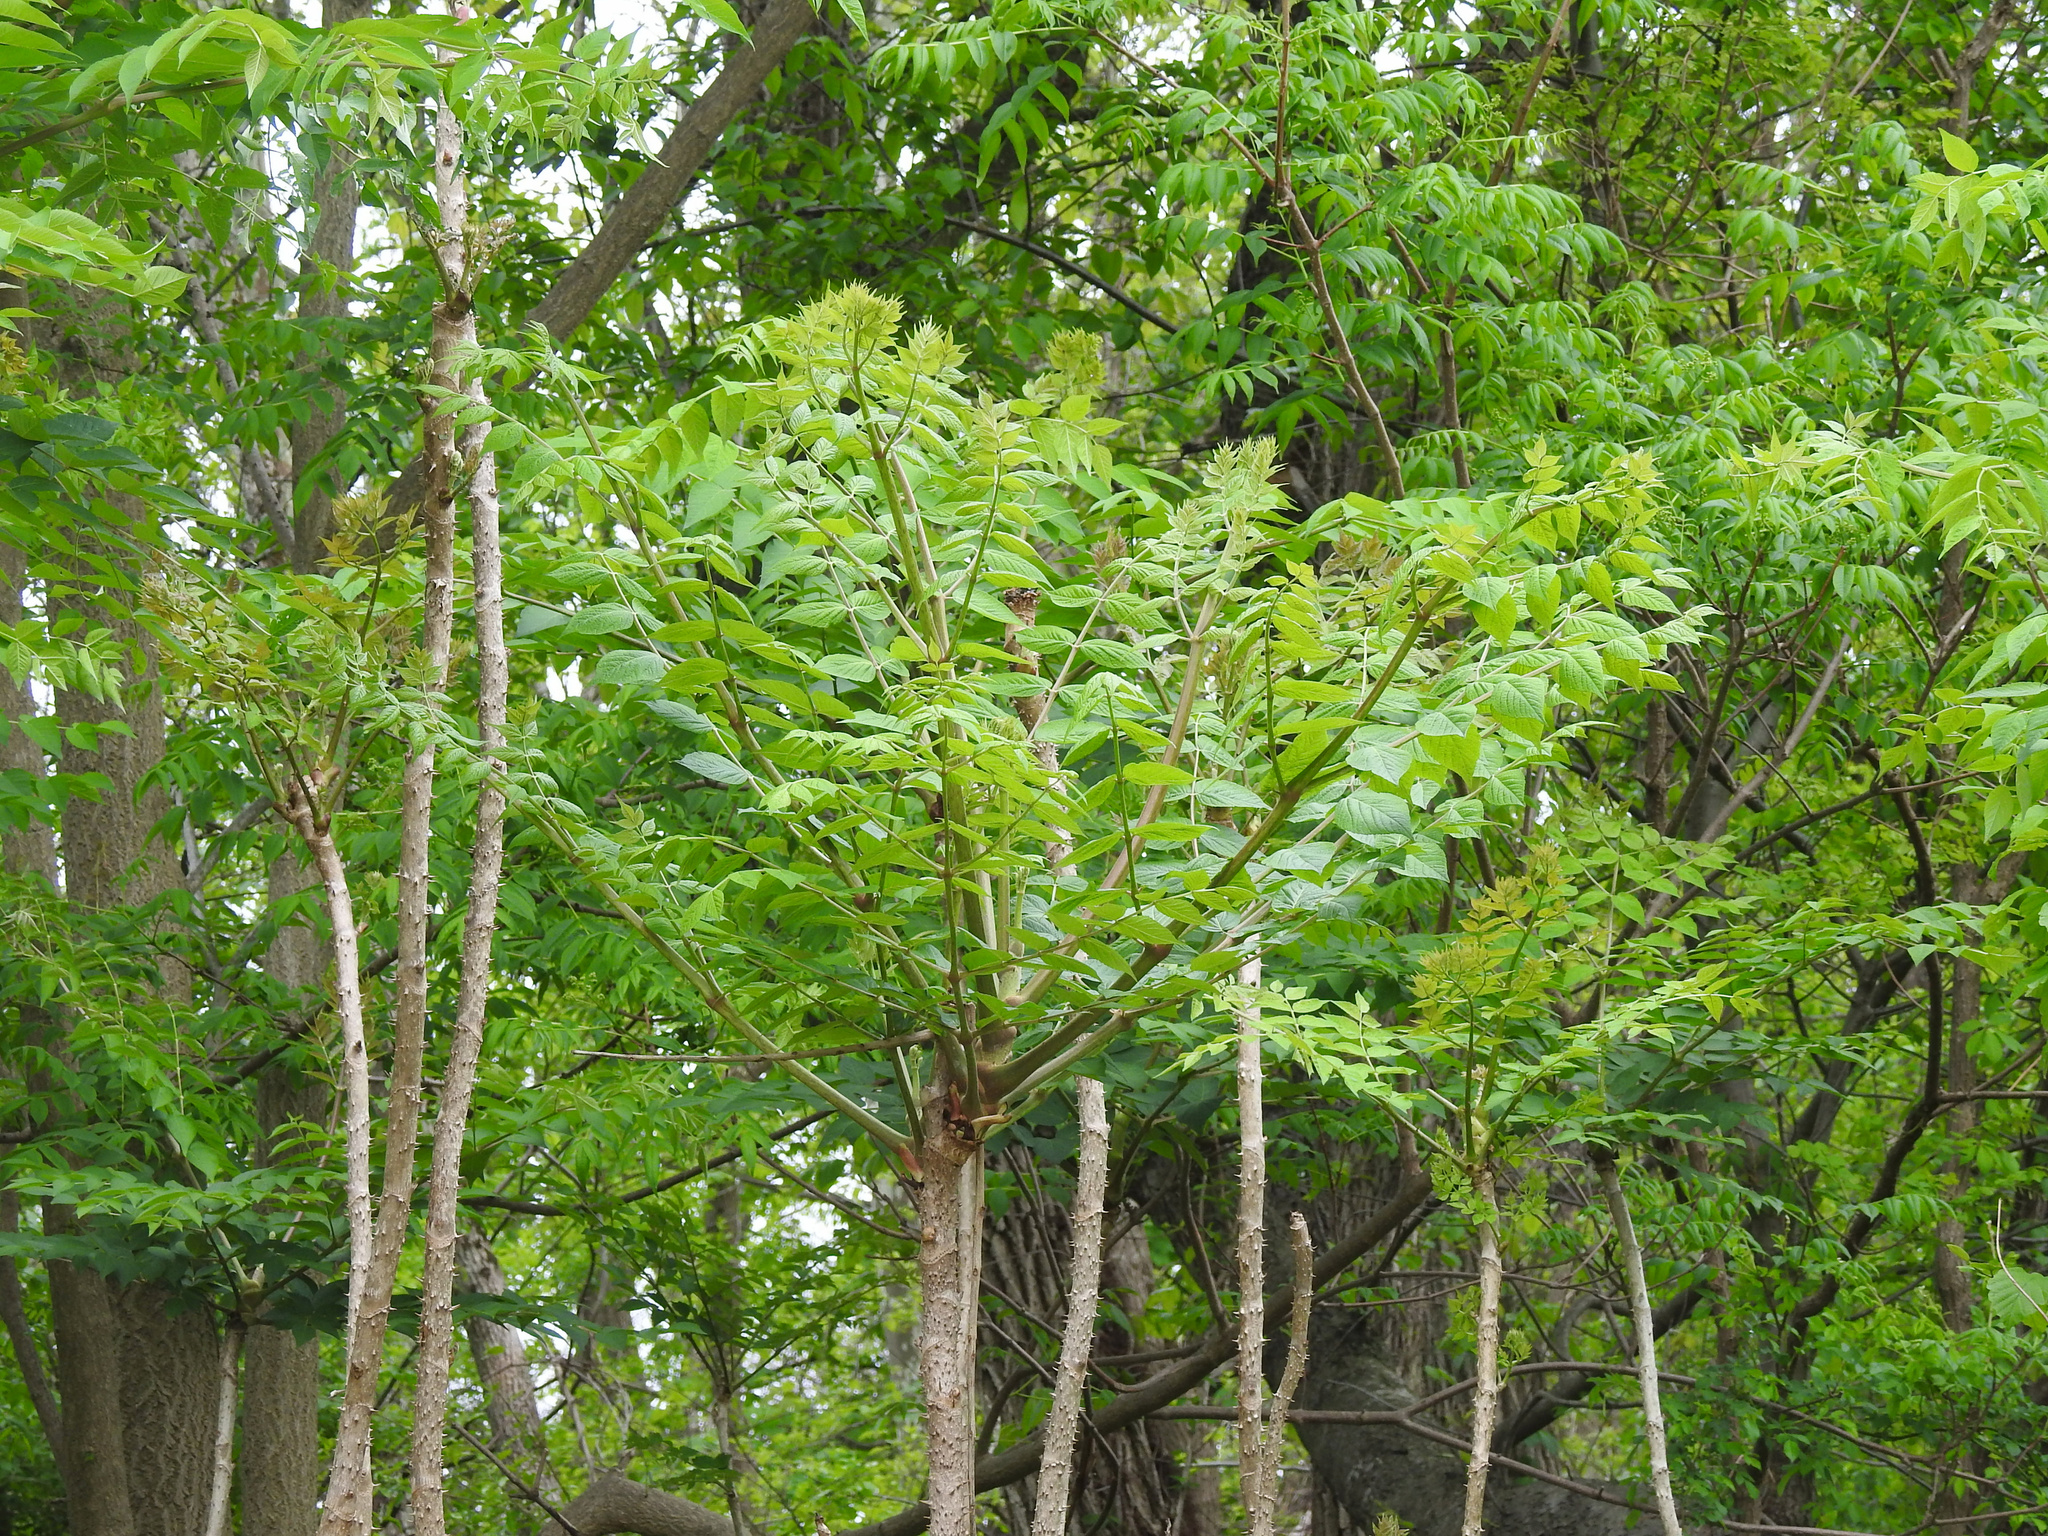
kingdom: Plantae
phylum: Tracheophyta
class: Magnoliopsida
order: Apiales
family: Araliaceae
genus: Aralia
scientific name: Aralia elata
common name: Japanese angelica-tree
